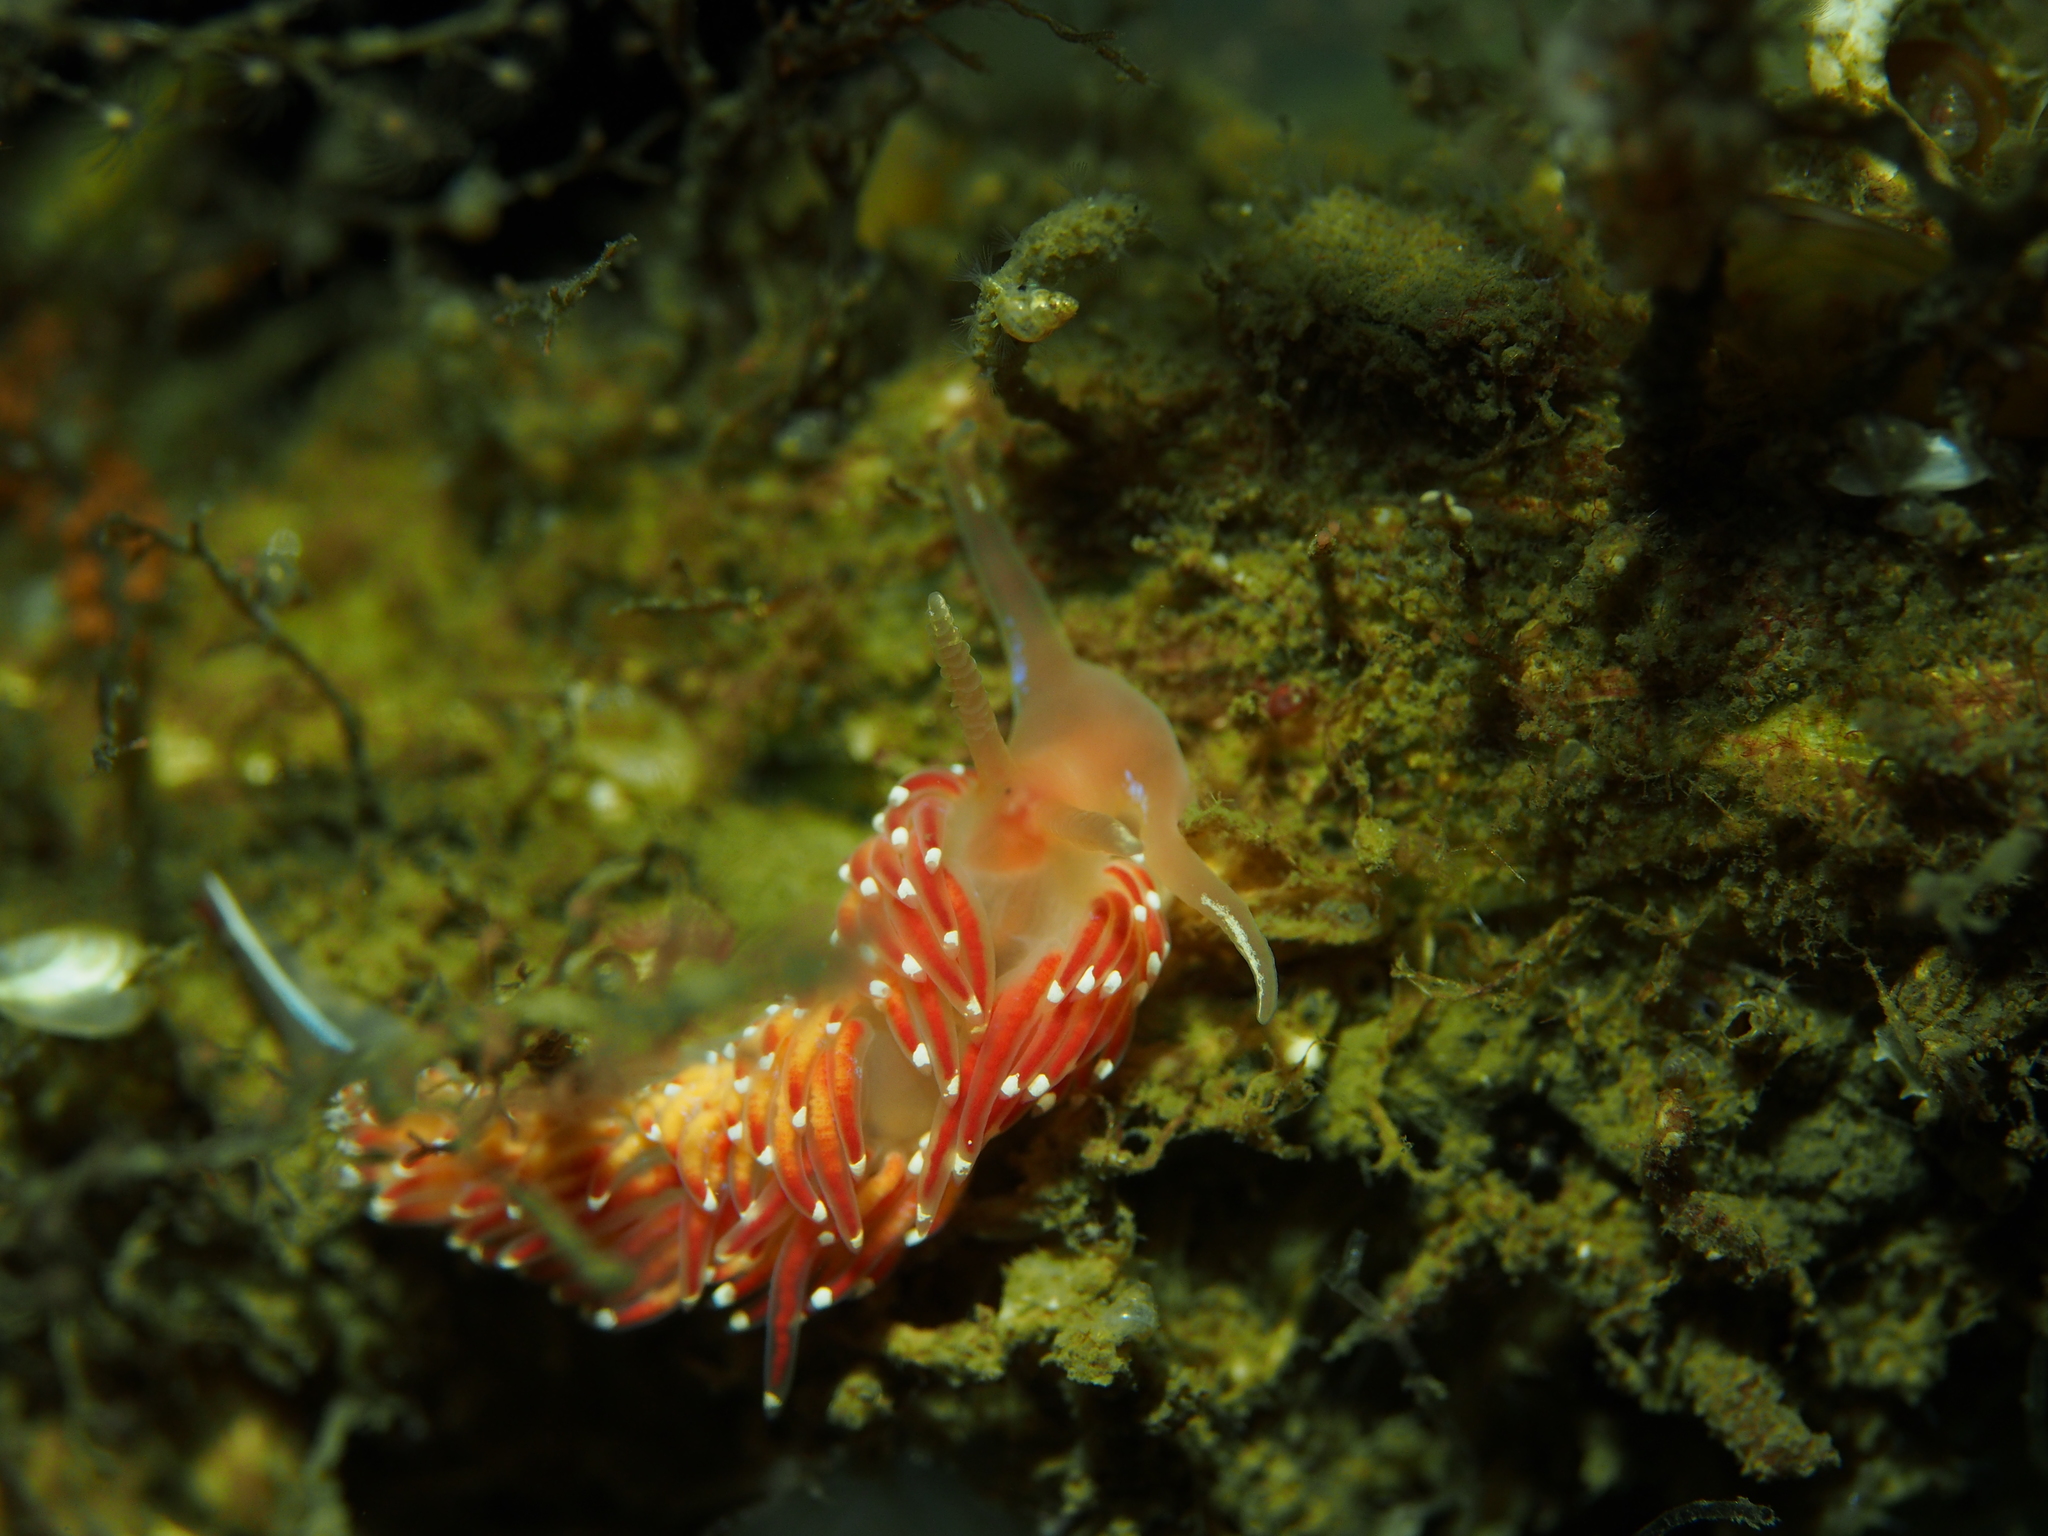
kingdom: Animalia
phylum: Mollusca
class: Gastropoda
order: Nudibranchia
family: Facelinidae
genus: Facelina
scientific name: Facelina bostoniensis
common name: Boston facelina
